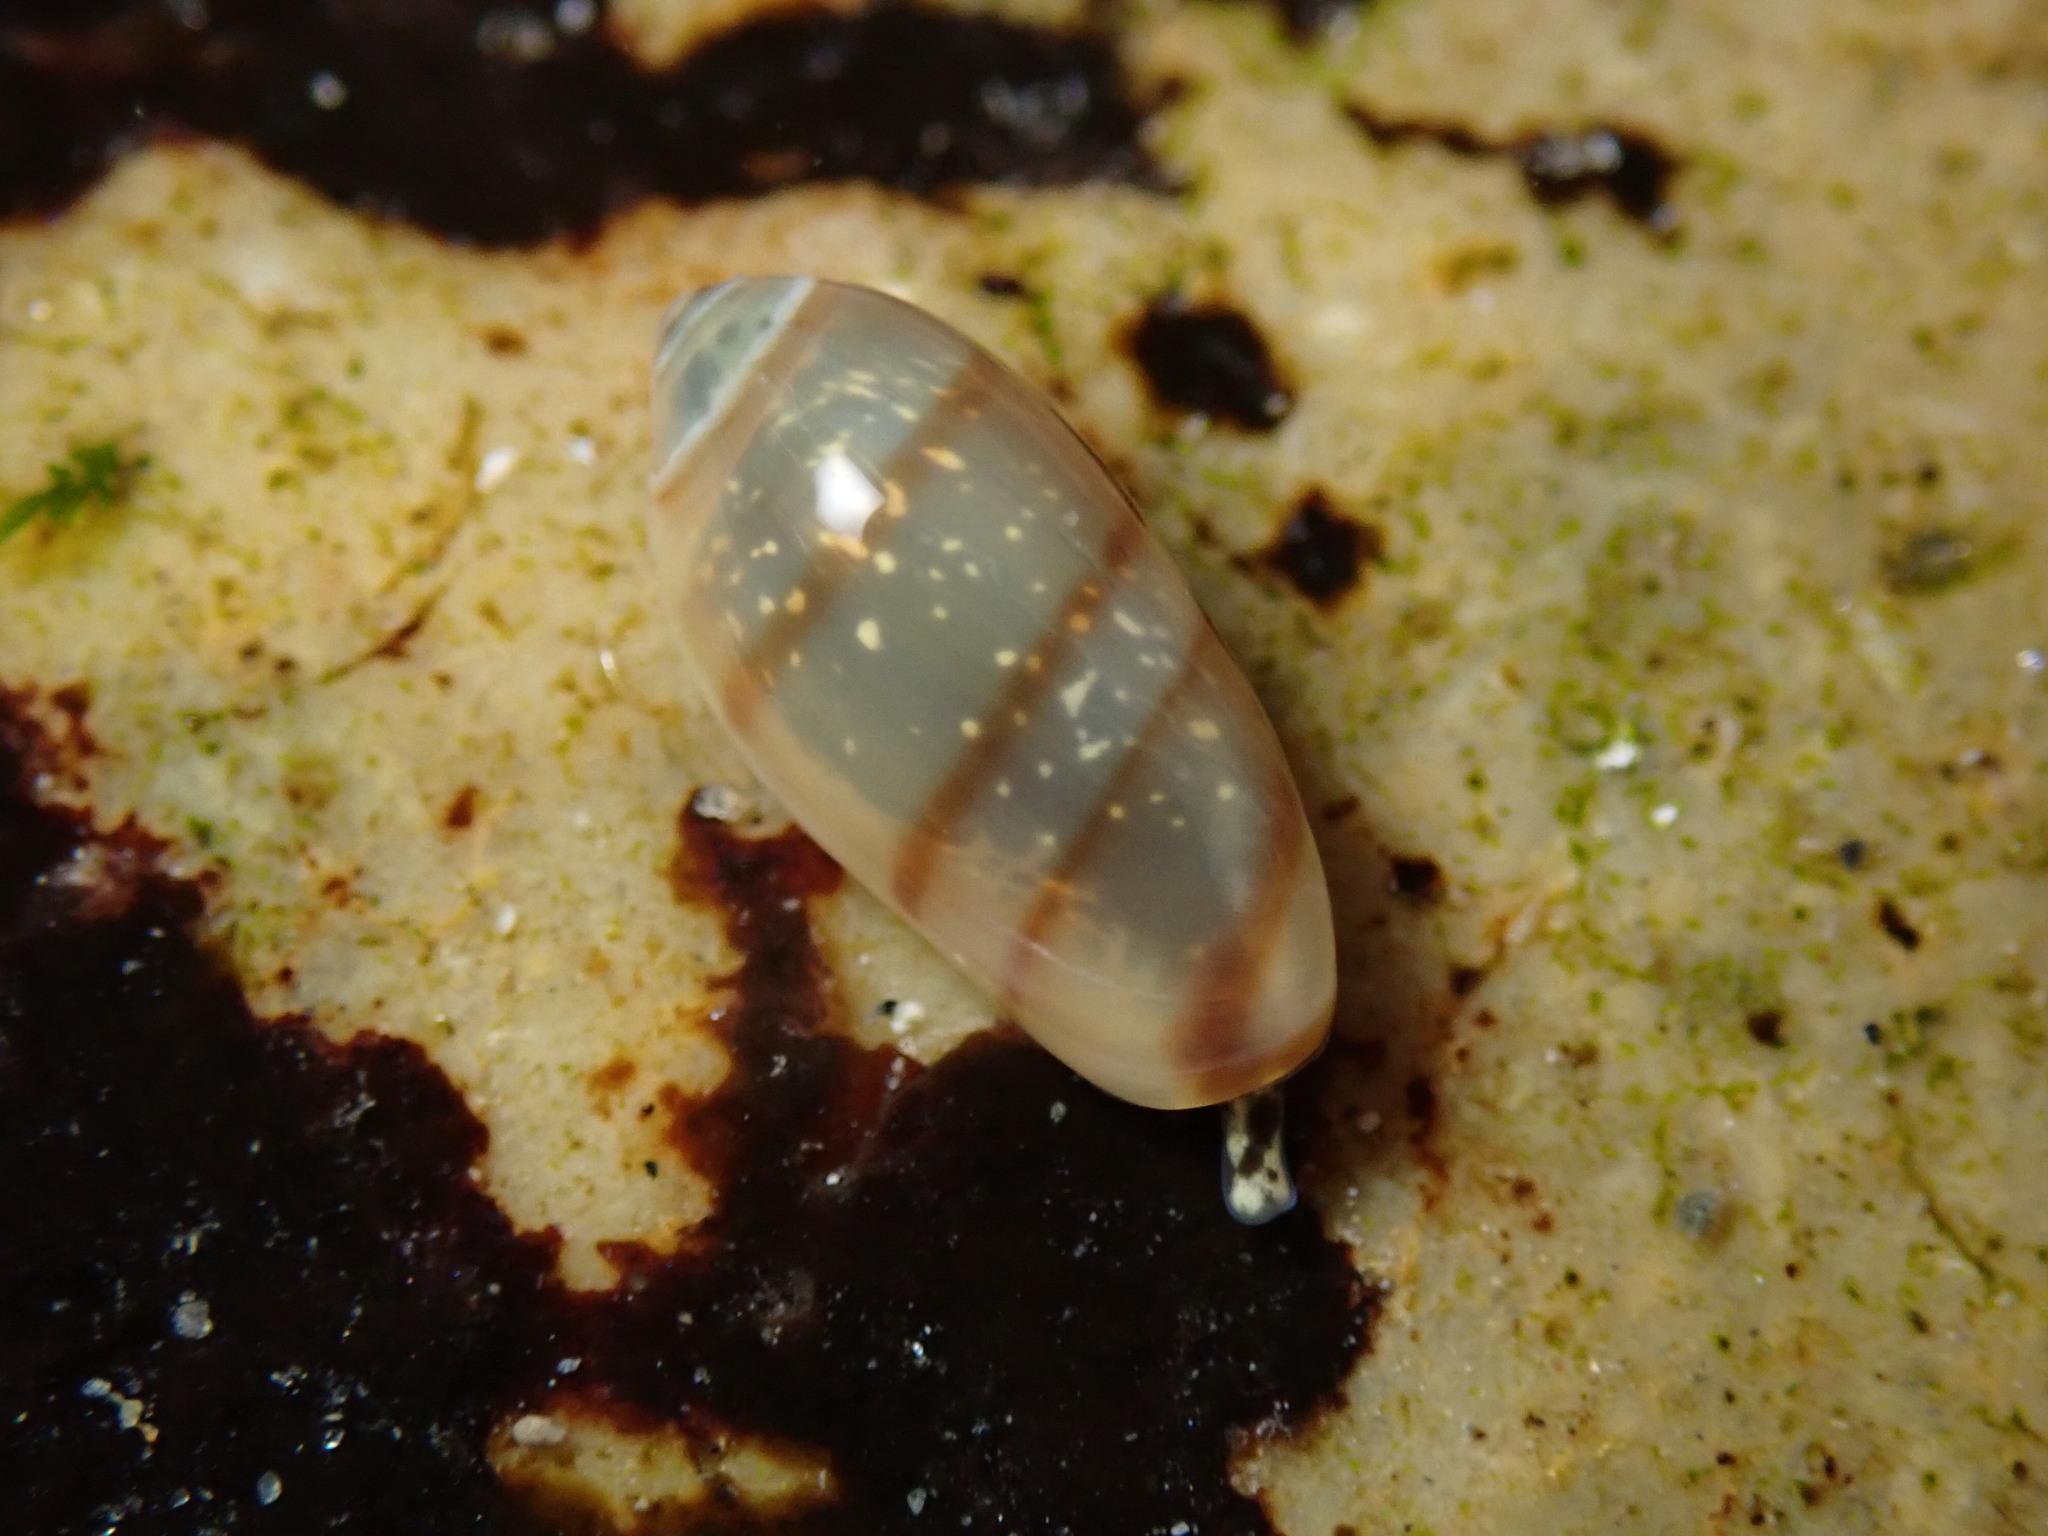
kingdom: Animalia
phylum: Mollusca
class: Gastropoda
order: Neogastropoda
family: Marginellidae
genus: Volvarina
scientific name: Volvarina taeniolata
